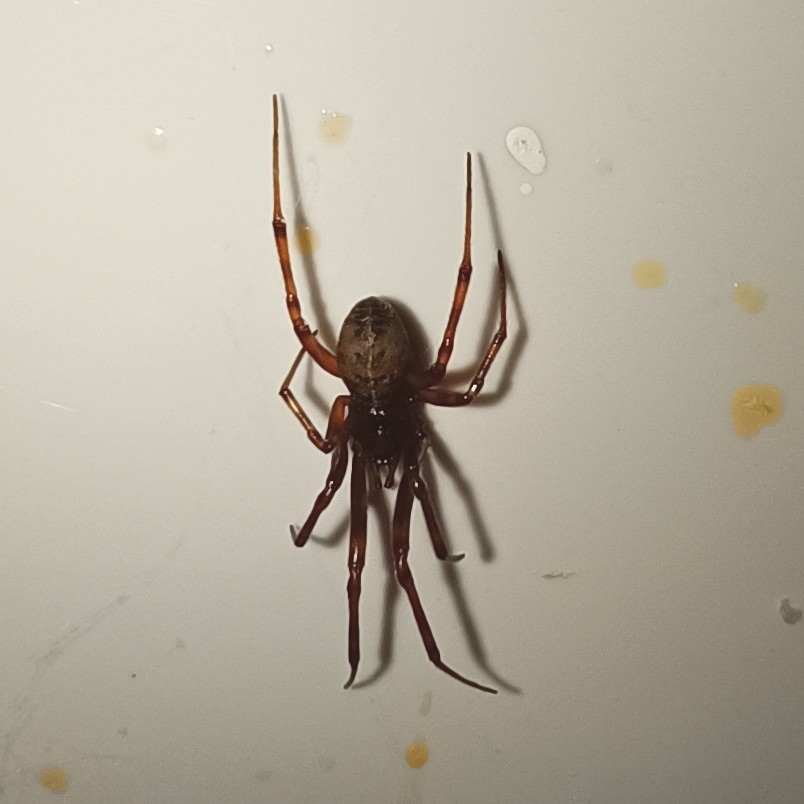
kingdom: Animalia
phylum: Arthropoda
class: Arachnida
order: Araneae
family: Theridiidae
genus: Steatoda
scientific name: Steatoda castanea
